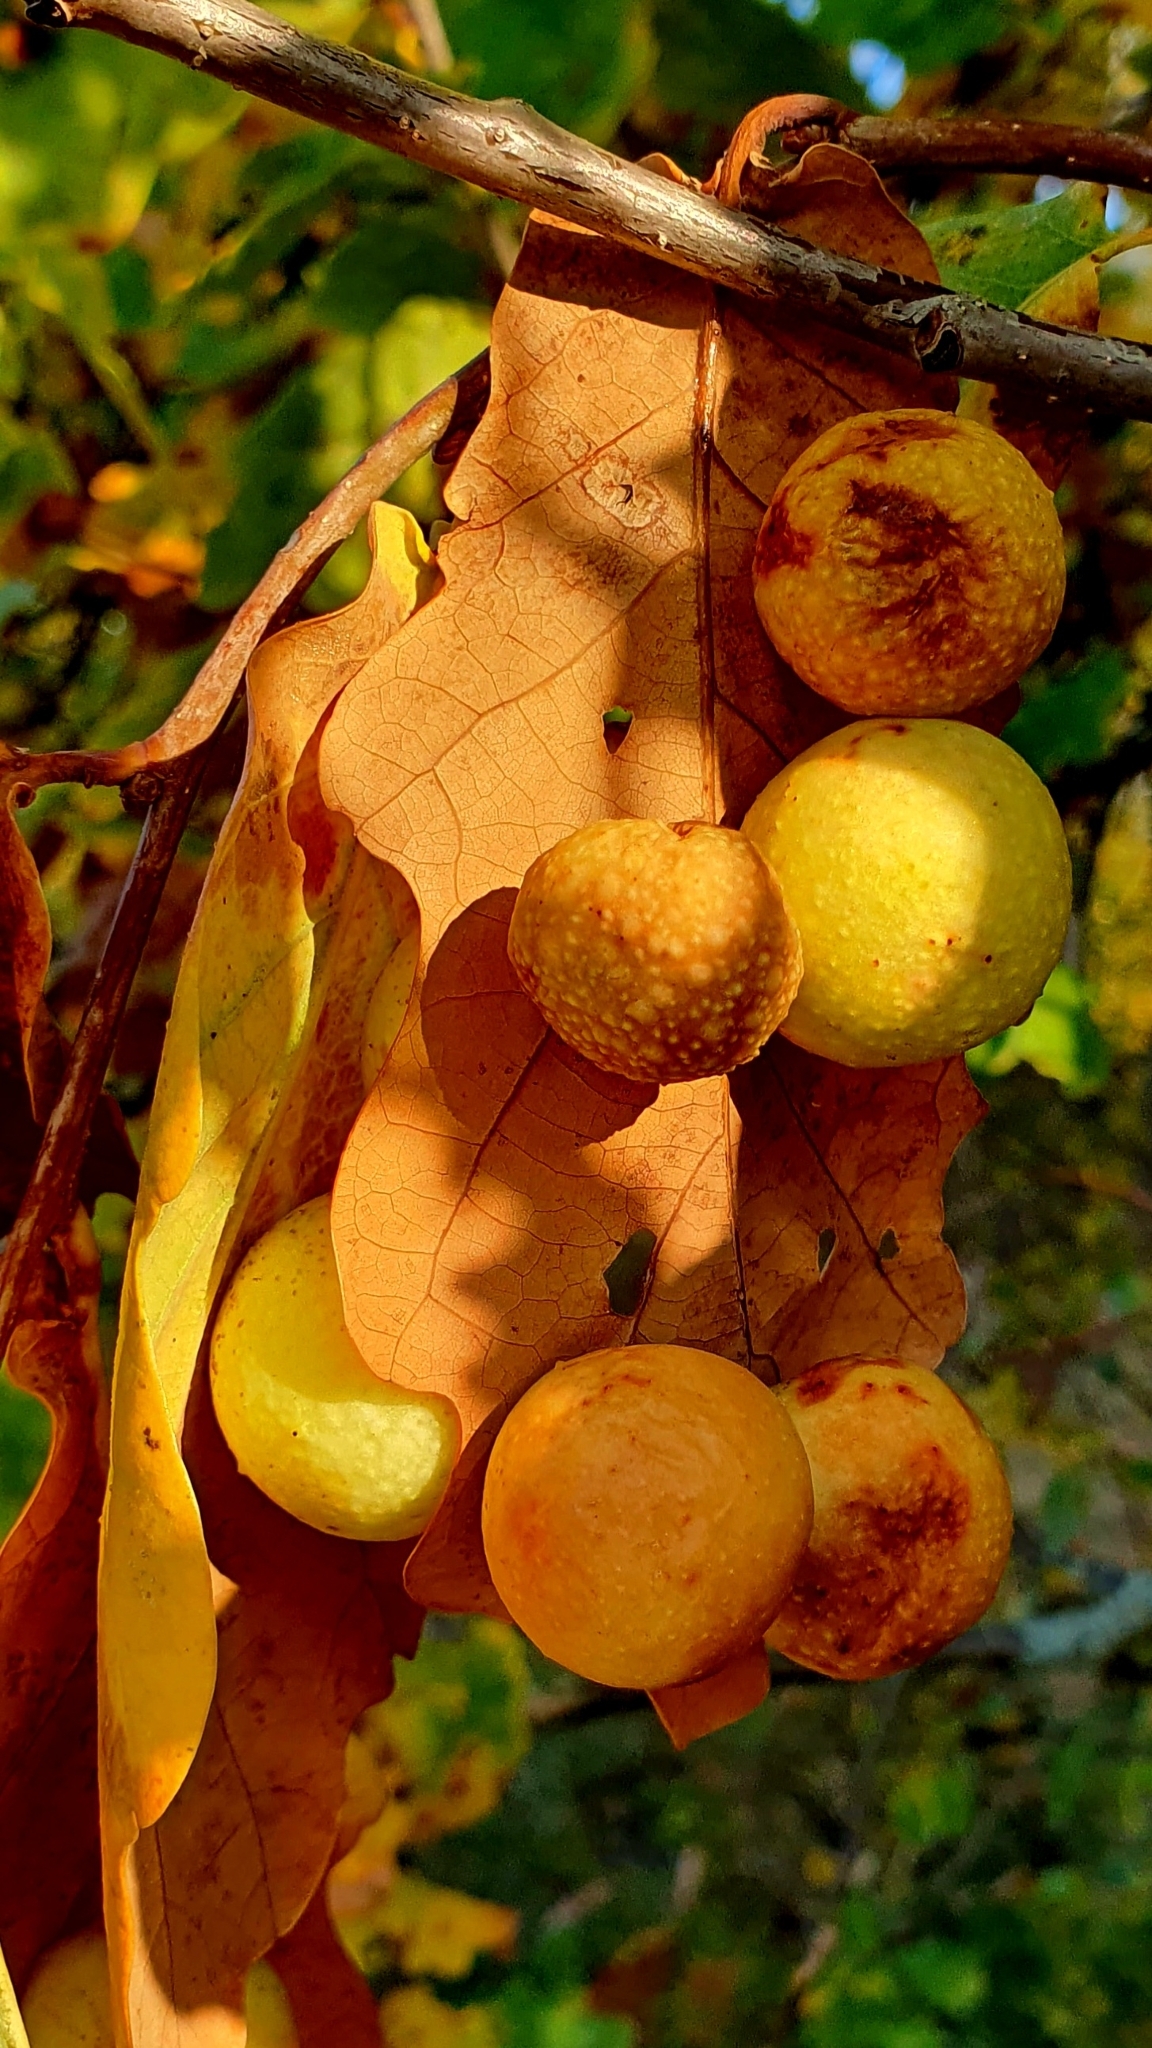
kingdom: Animalia
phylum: Arthropoda
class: Insecta
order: Hymenoptera
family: Cynipidae
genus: Cynips
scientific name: Cynips quercusfolii
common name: Cherry gall
